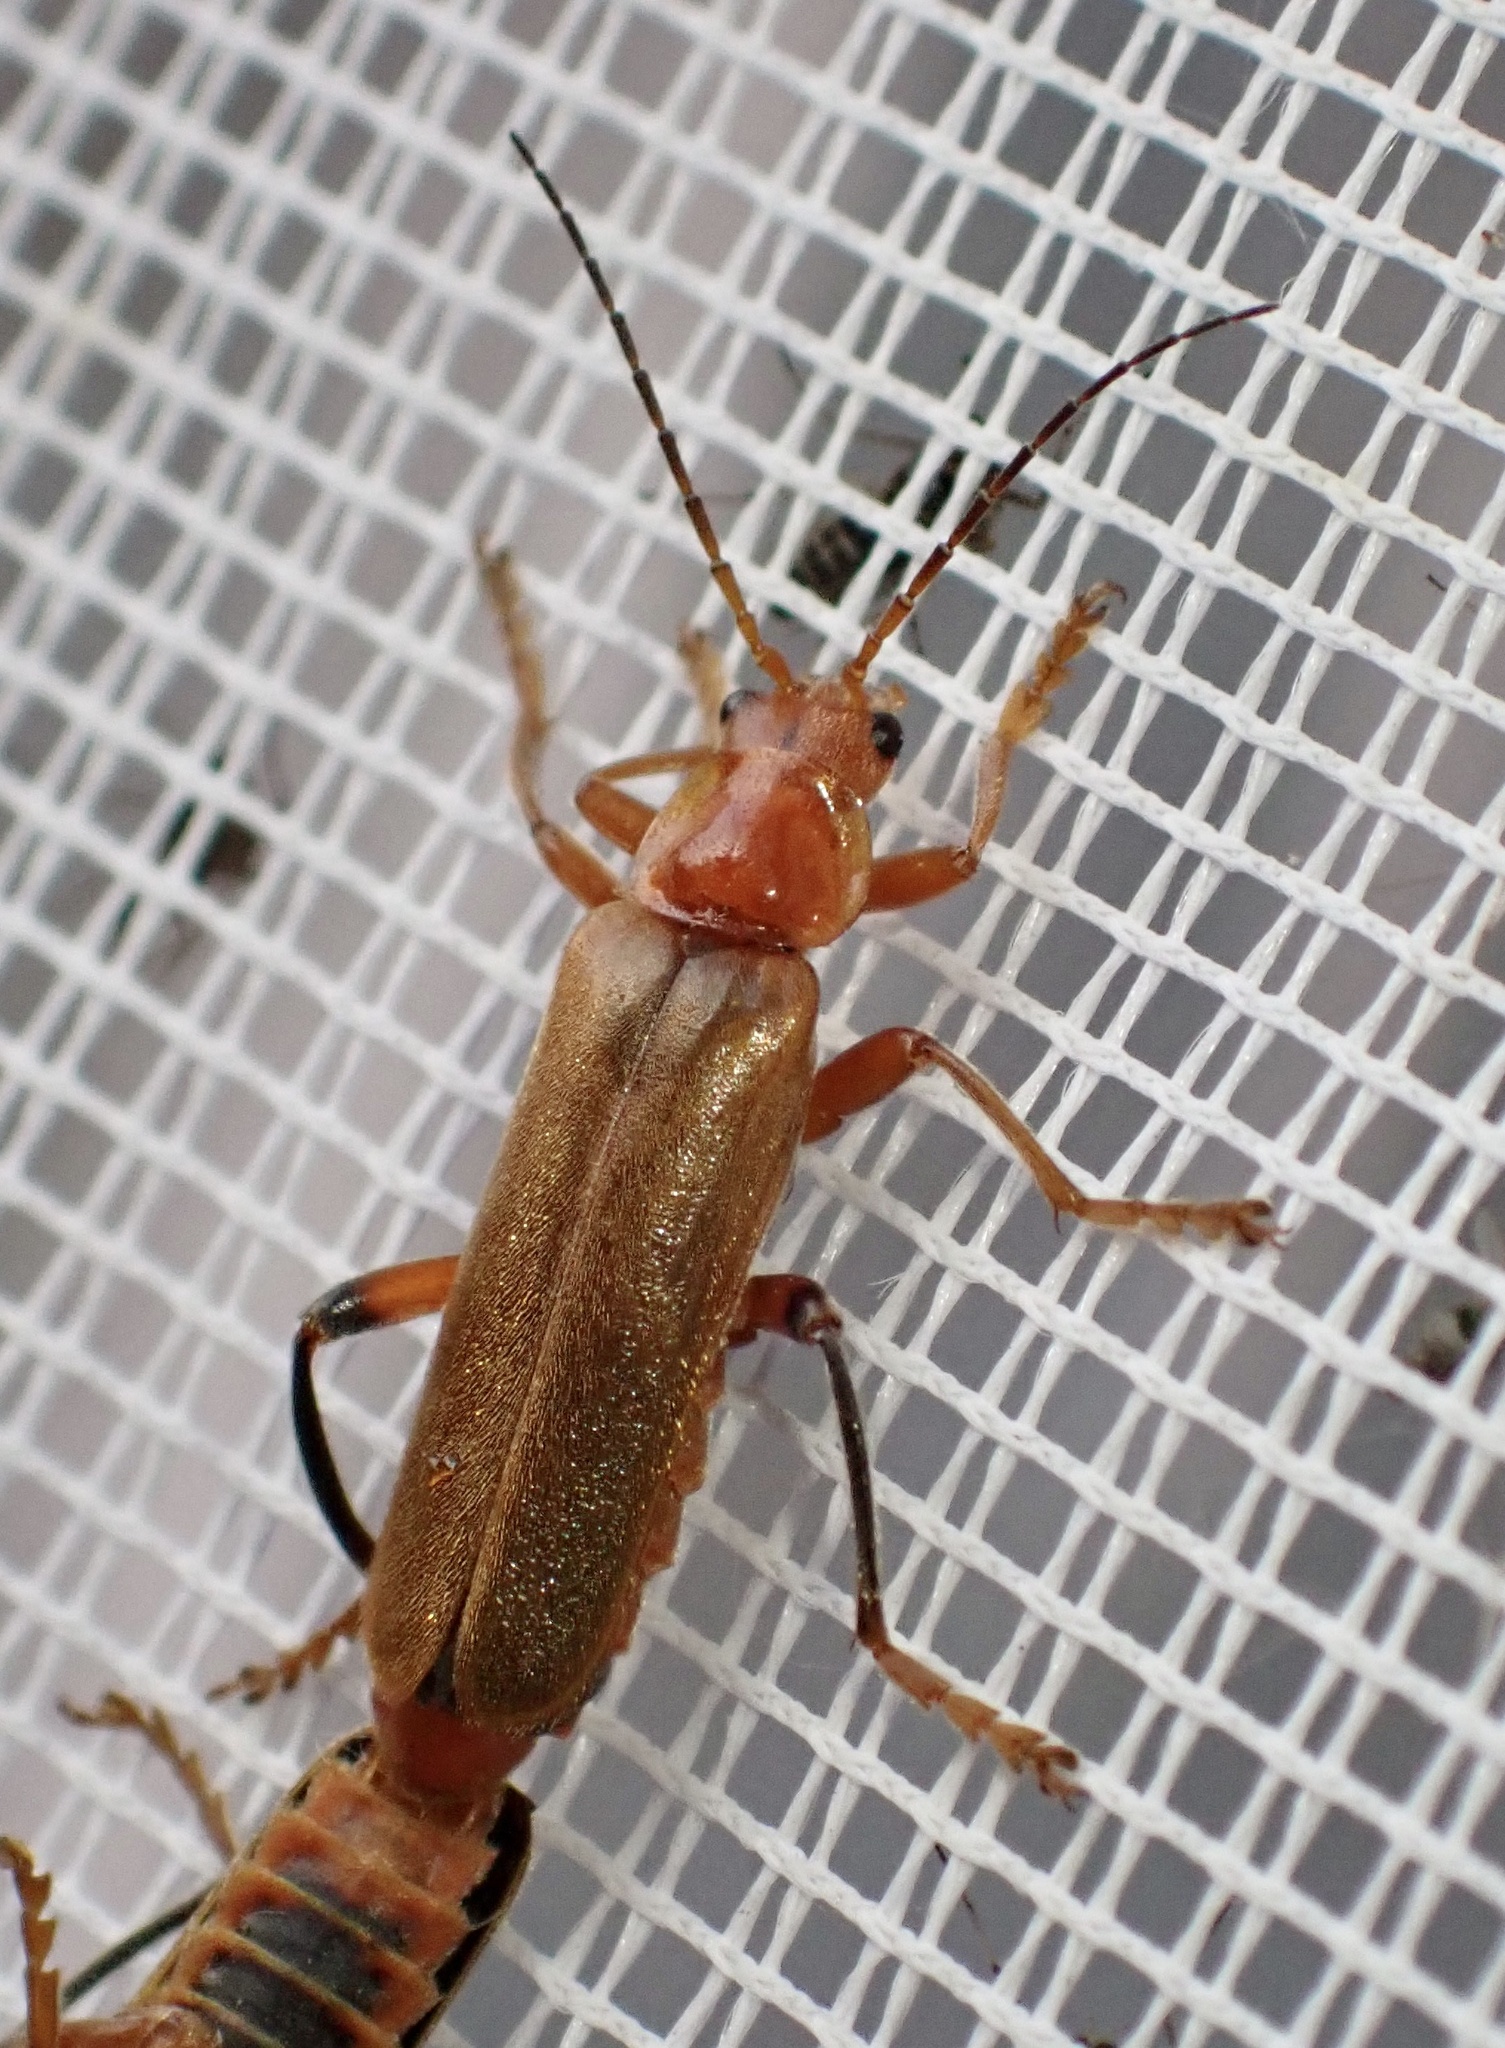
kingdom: Animalia
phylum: Arthropoda
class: Insecta
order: Coleoptera
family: Cantharidae
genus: Cantharis
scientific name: Cantharis livida
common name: Livid soldier beetle
